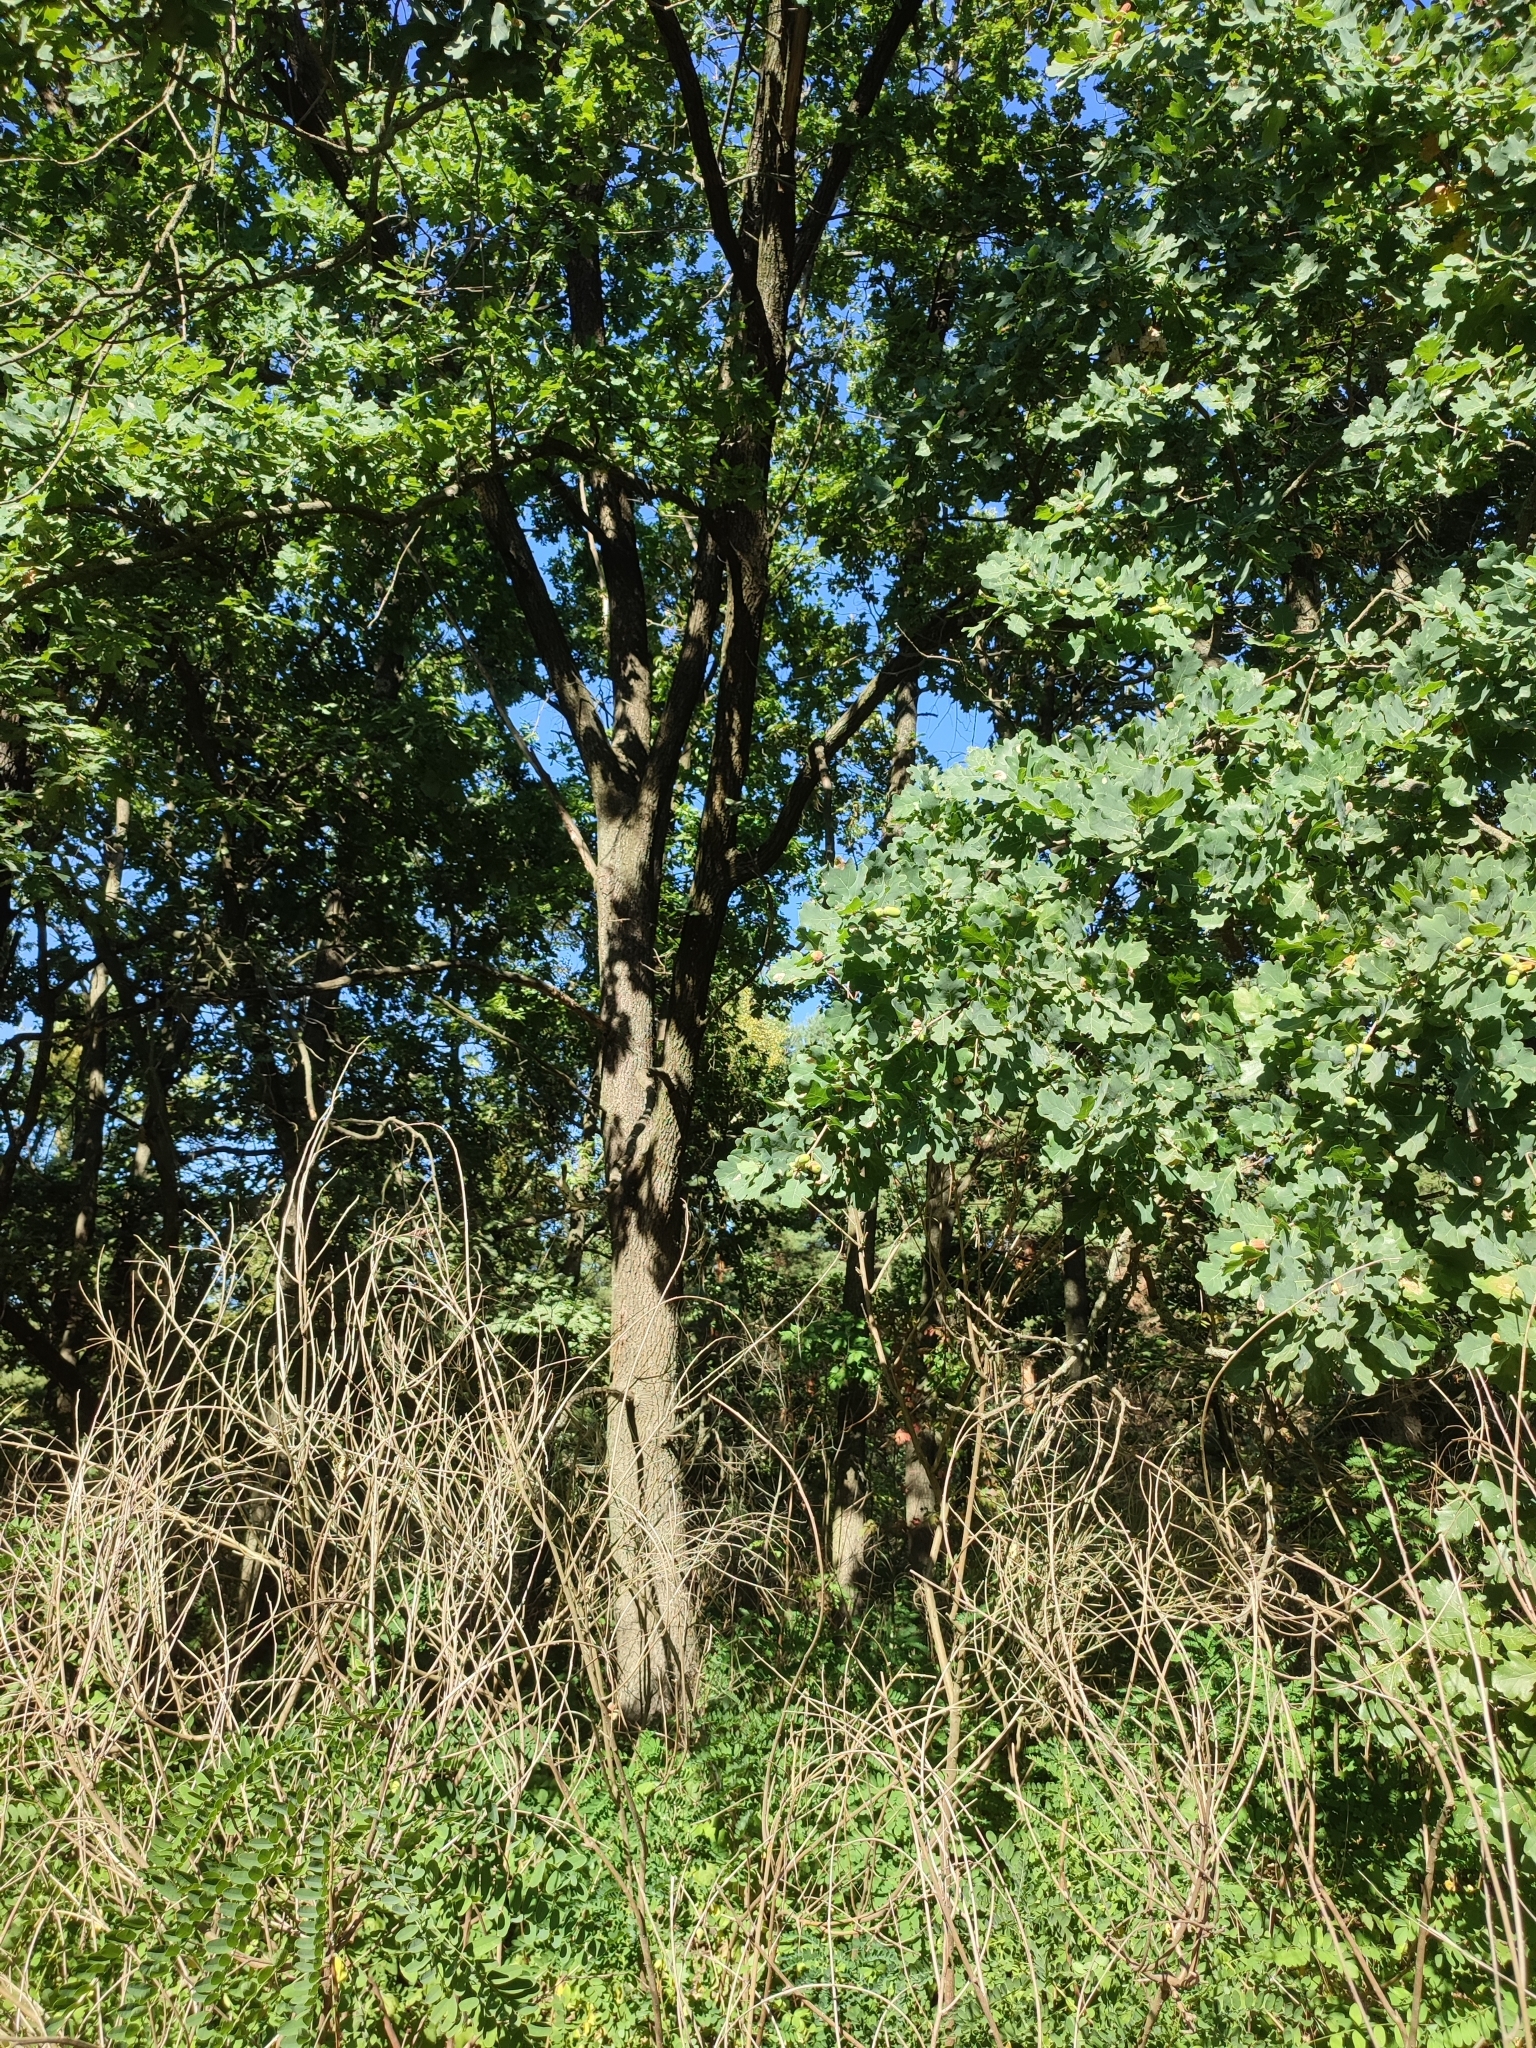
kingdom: Plantae
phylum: Tracheophyta
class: Magnoliopsida
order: Fagales
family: Fagaceae
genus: Quercus
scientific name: Quercus robur
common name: Pedunculate oak
